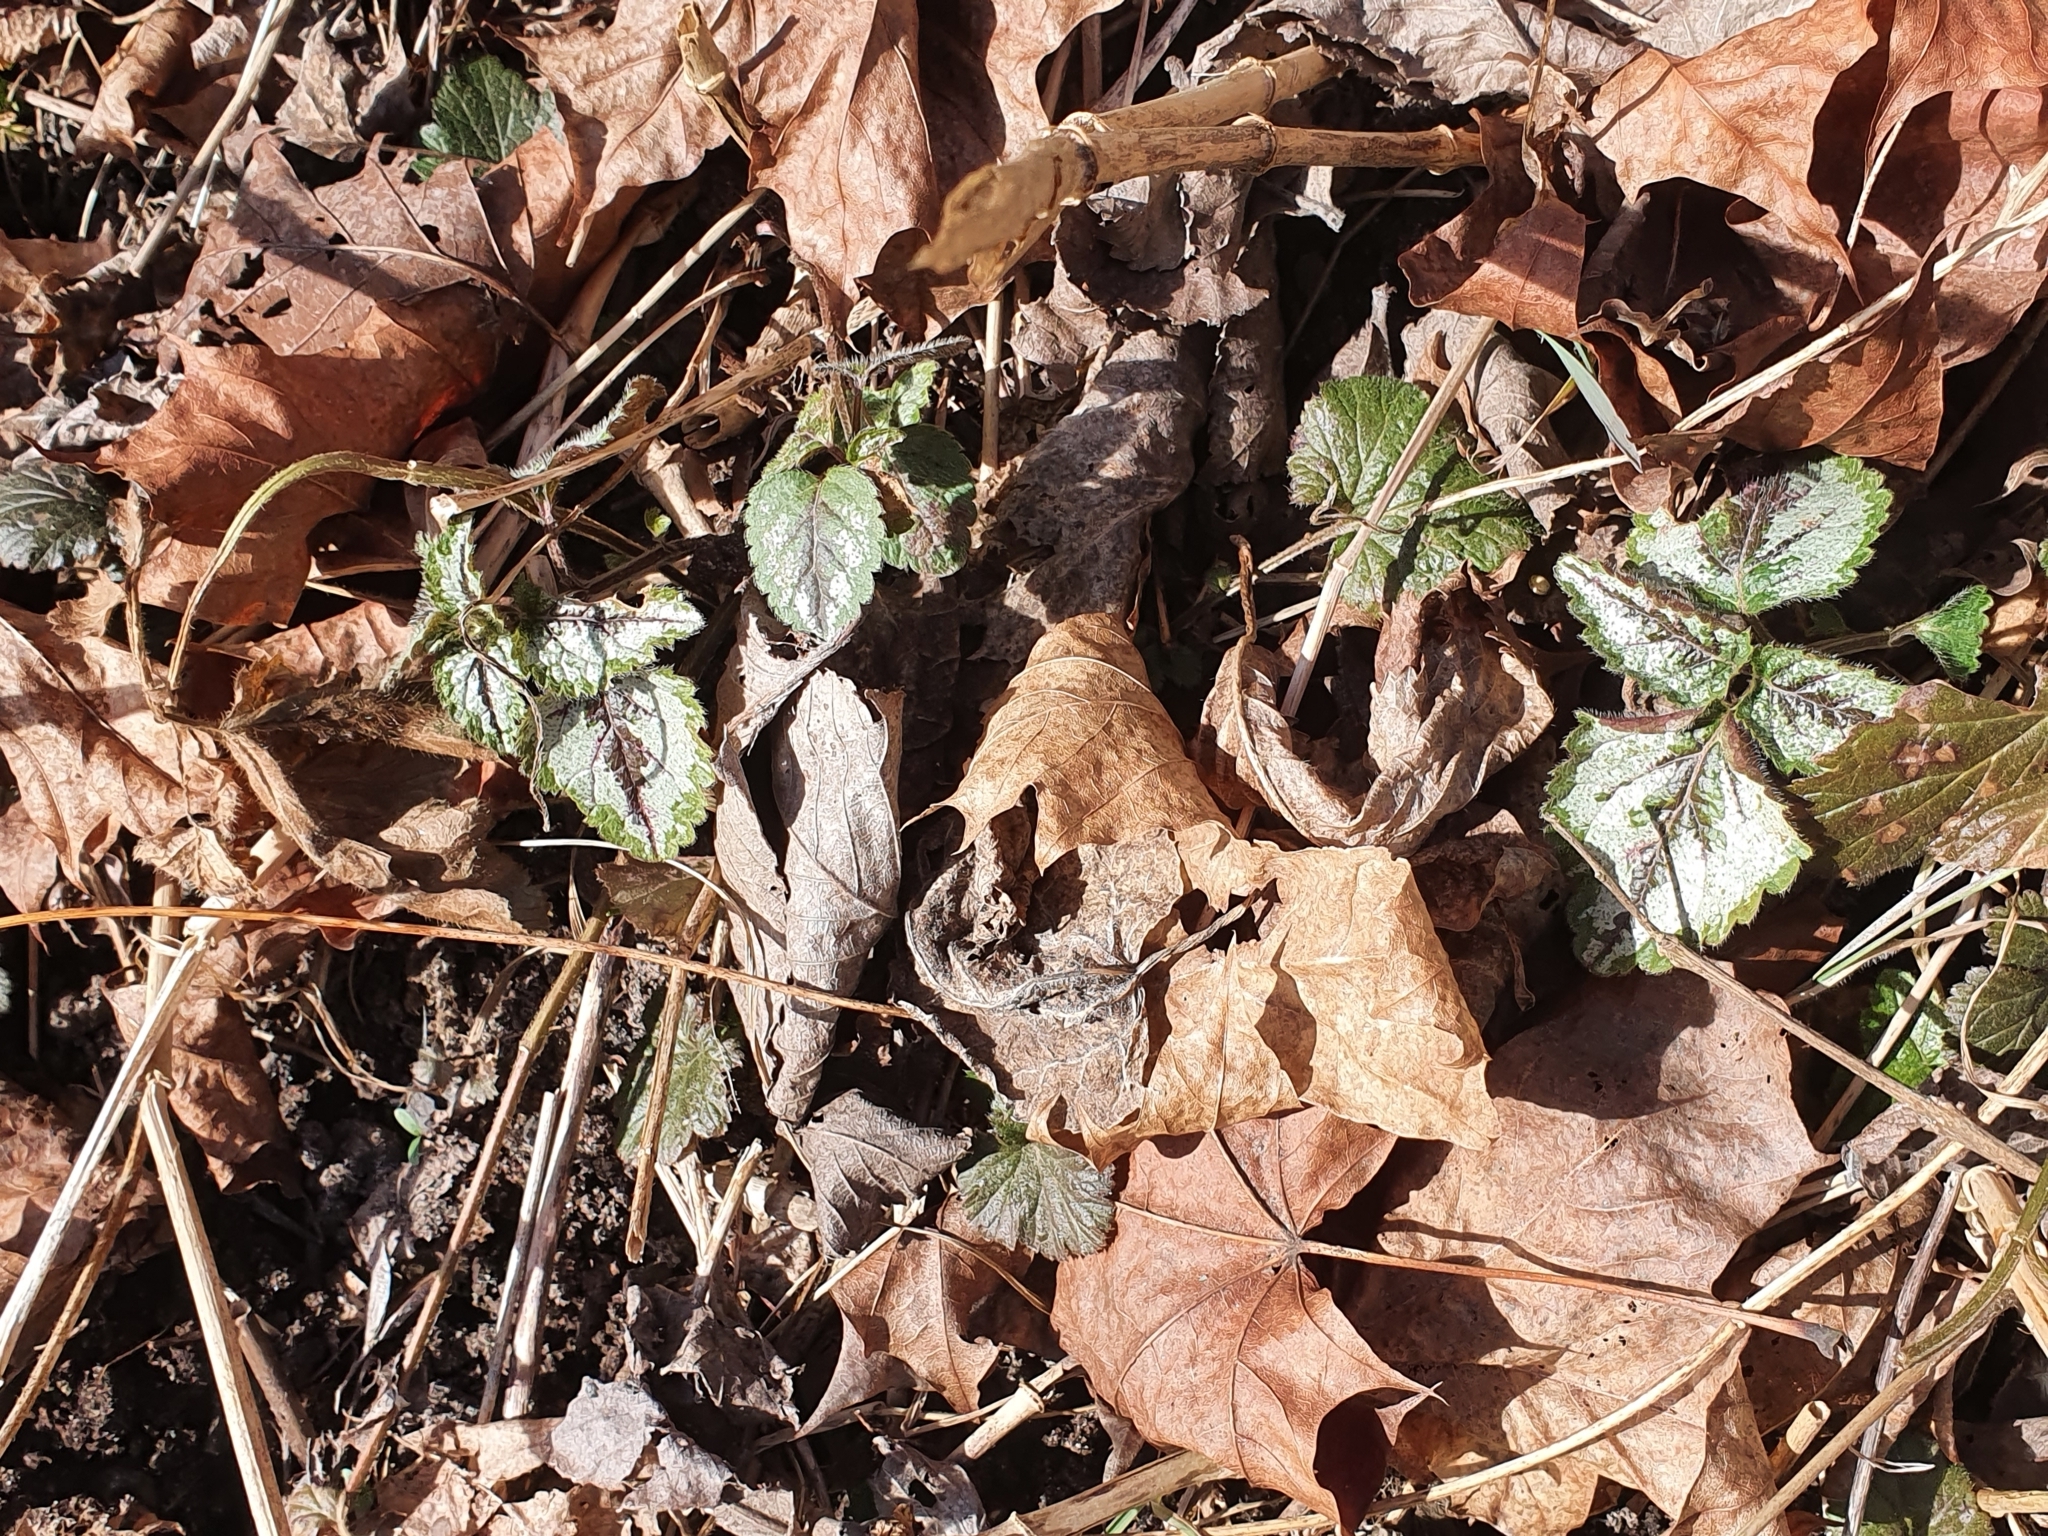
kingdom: Plantae
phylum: Tracheophyta
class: Magnoliopsida
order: Lamiales
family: Lamiaceae
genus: Lamium
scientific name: Lamium galeobdolon
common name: Yellow archangel
